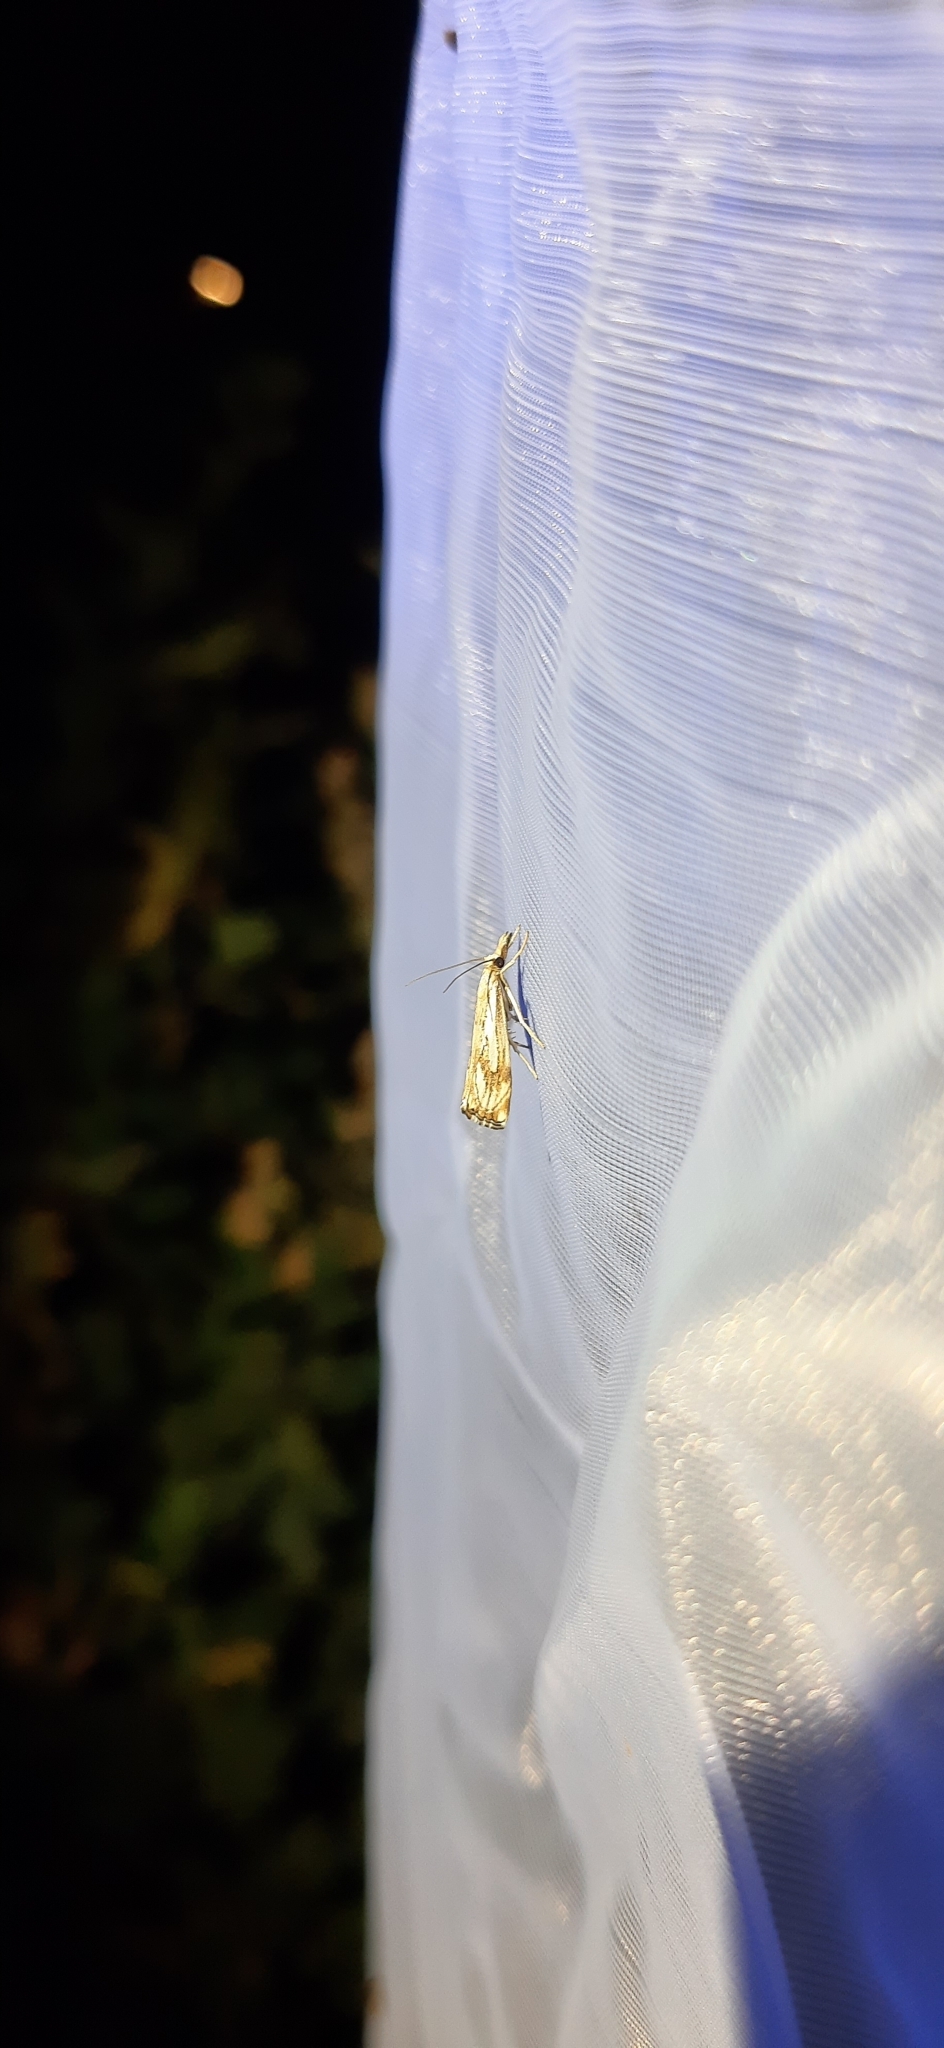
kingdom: Animalia
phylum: Arthropoda
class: Insecta
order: Lepidoptera
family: Crambidae
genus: Catoptria
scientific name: Catoptria falsella
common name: Chequered grass-veneer
